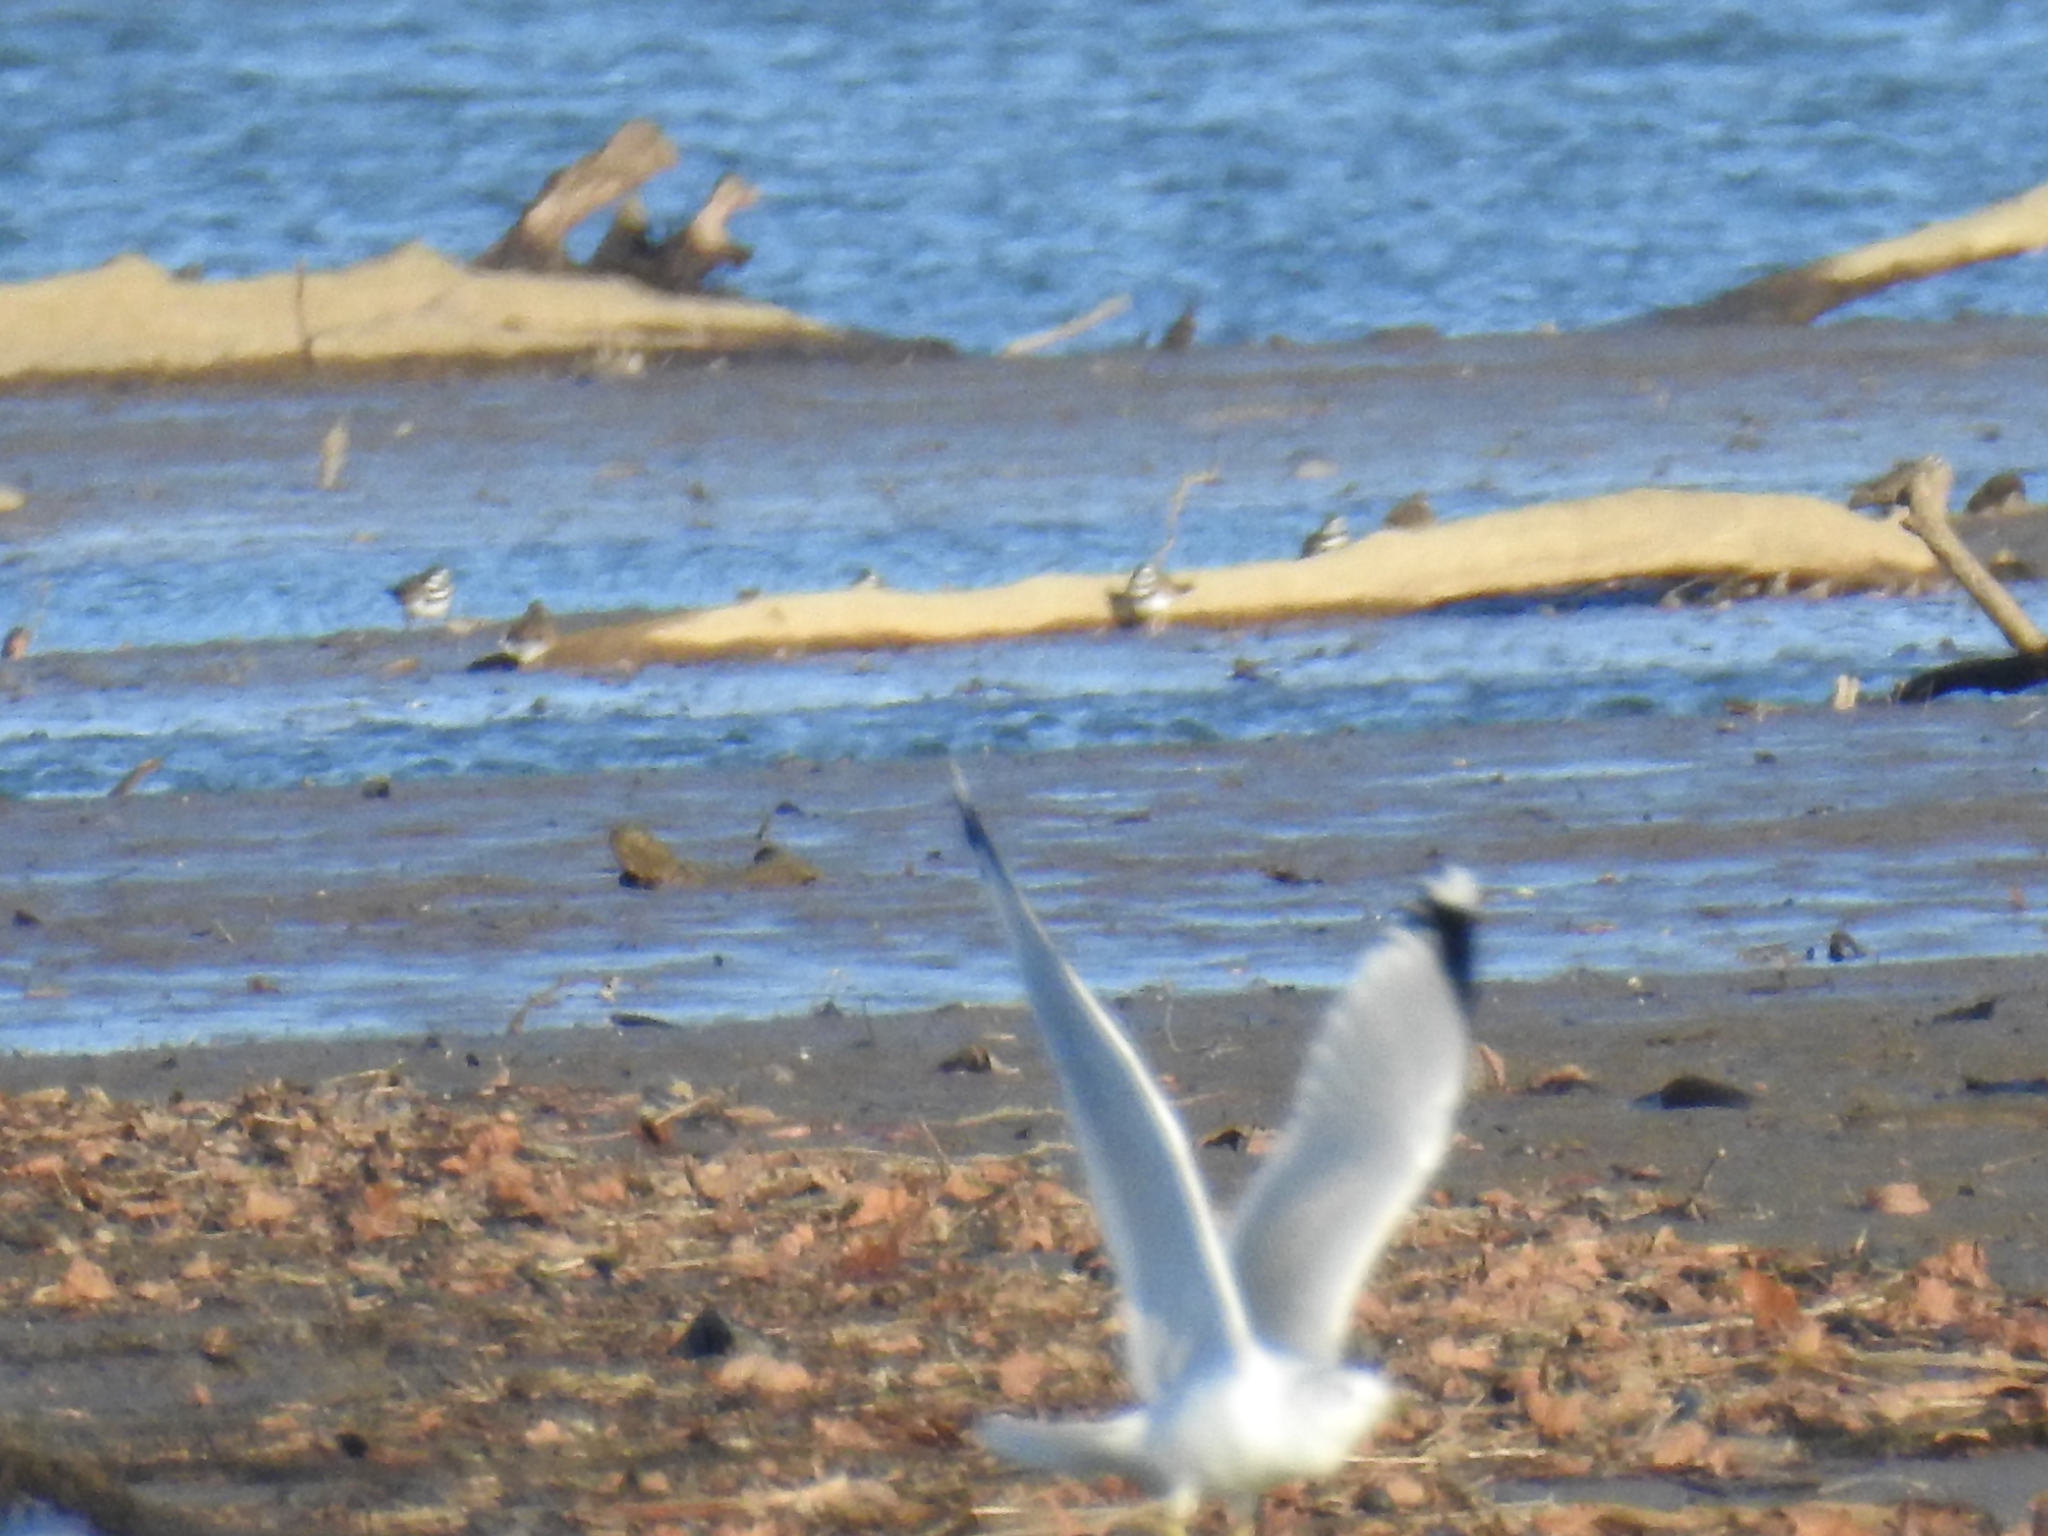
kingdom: Animalia
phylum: Chordata
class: Aves
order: Charadriiformes
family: Laridae
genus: Larus
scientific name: Larus delawarensis
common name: Ring-billed gull
